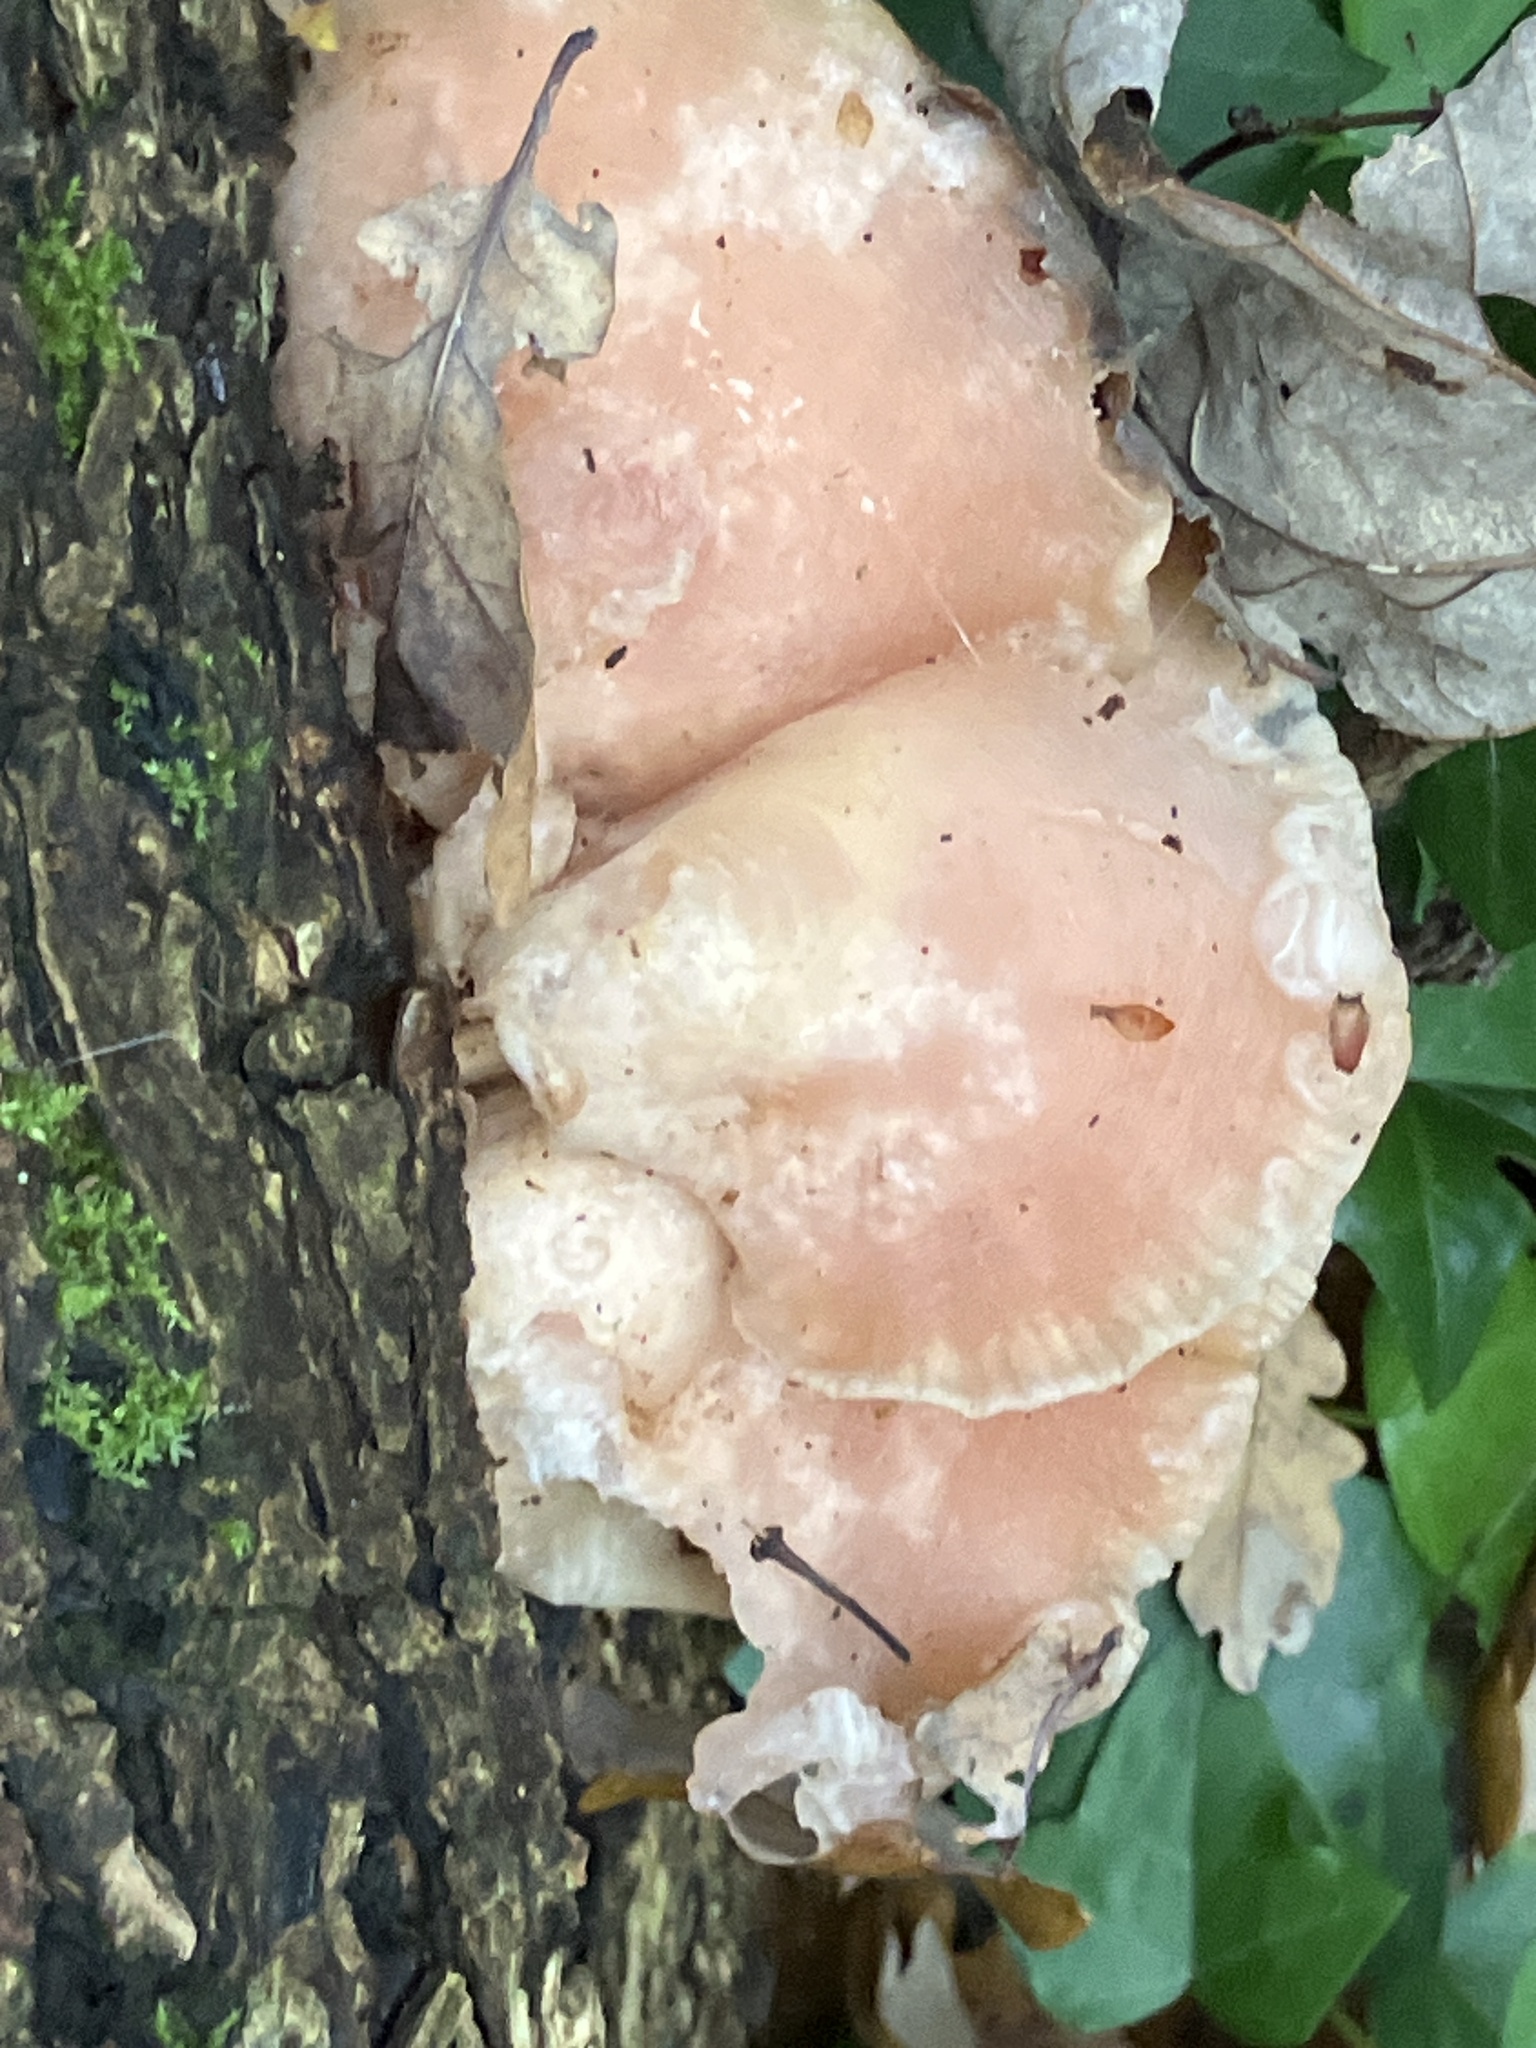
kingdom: Fungi
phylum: Basidiomycota
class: Agaricomycetes
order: Agaricales
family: Physalacriaceae
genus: Rhodotus
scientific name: Rhodotus palmatus
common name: Wrinkled peach
